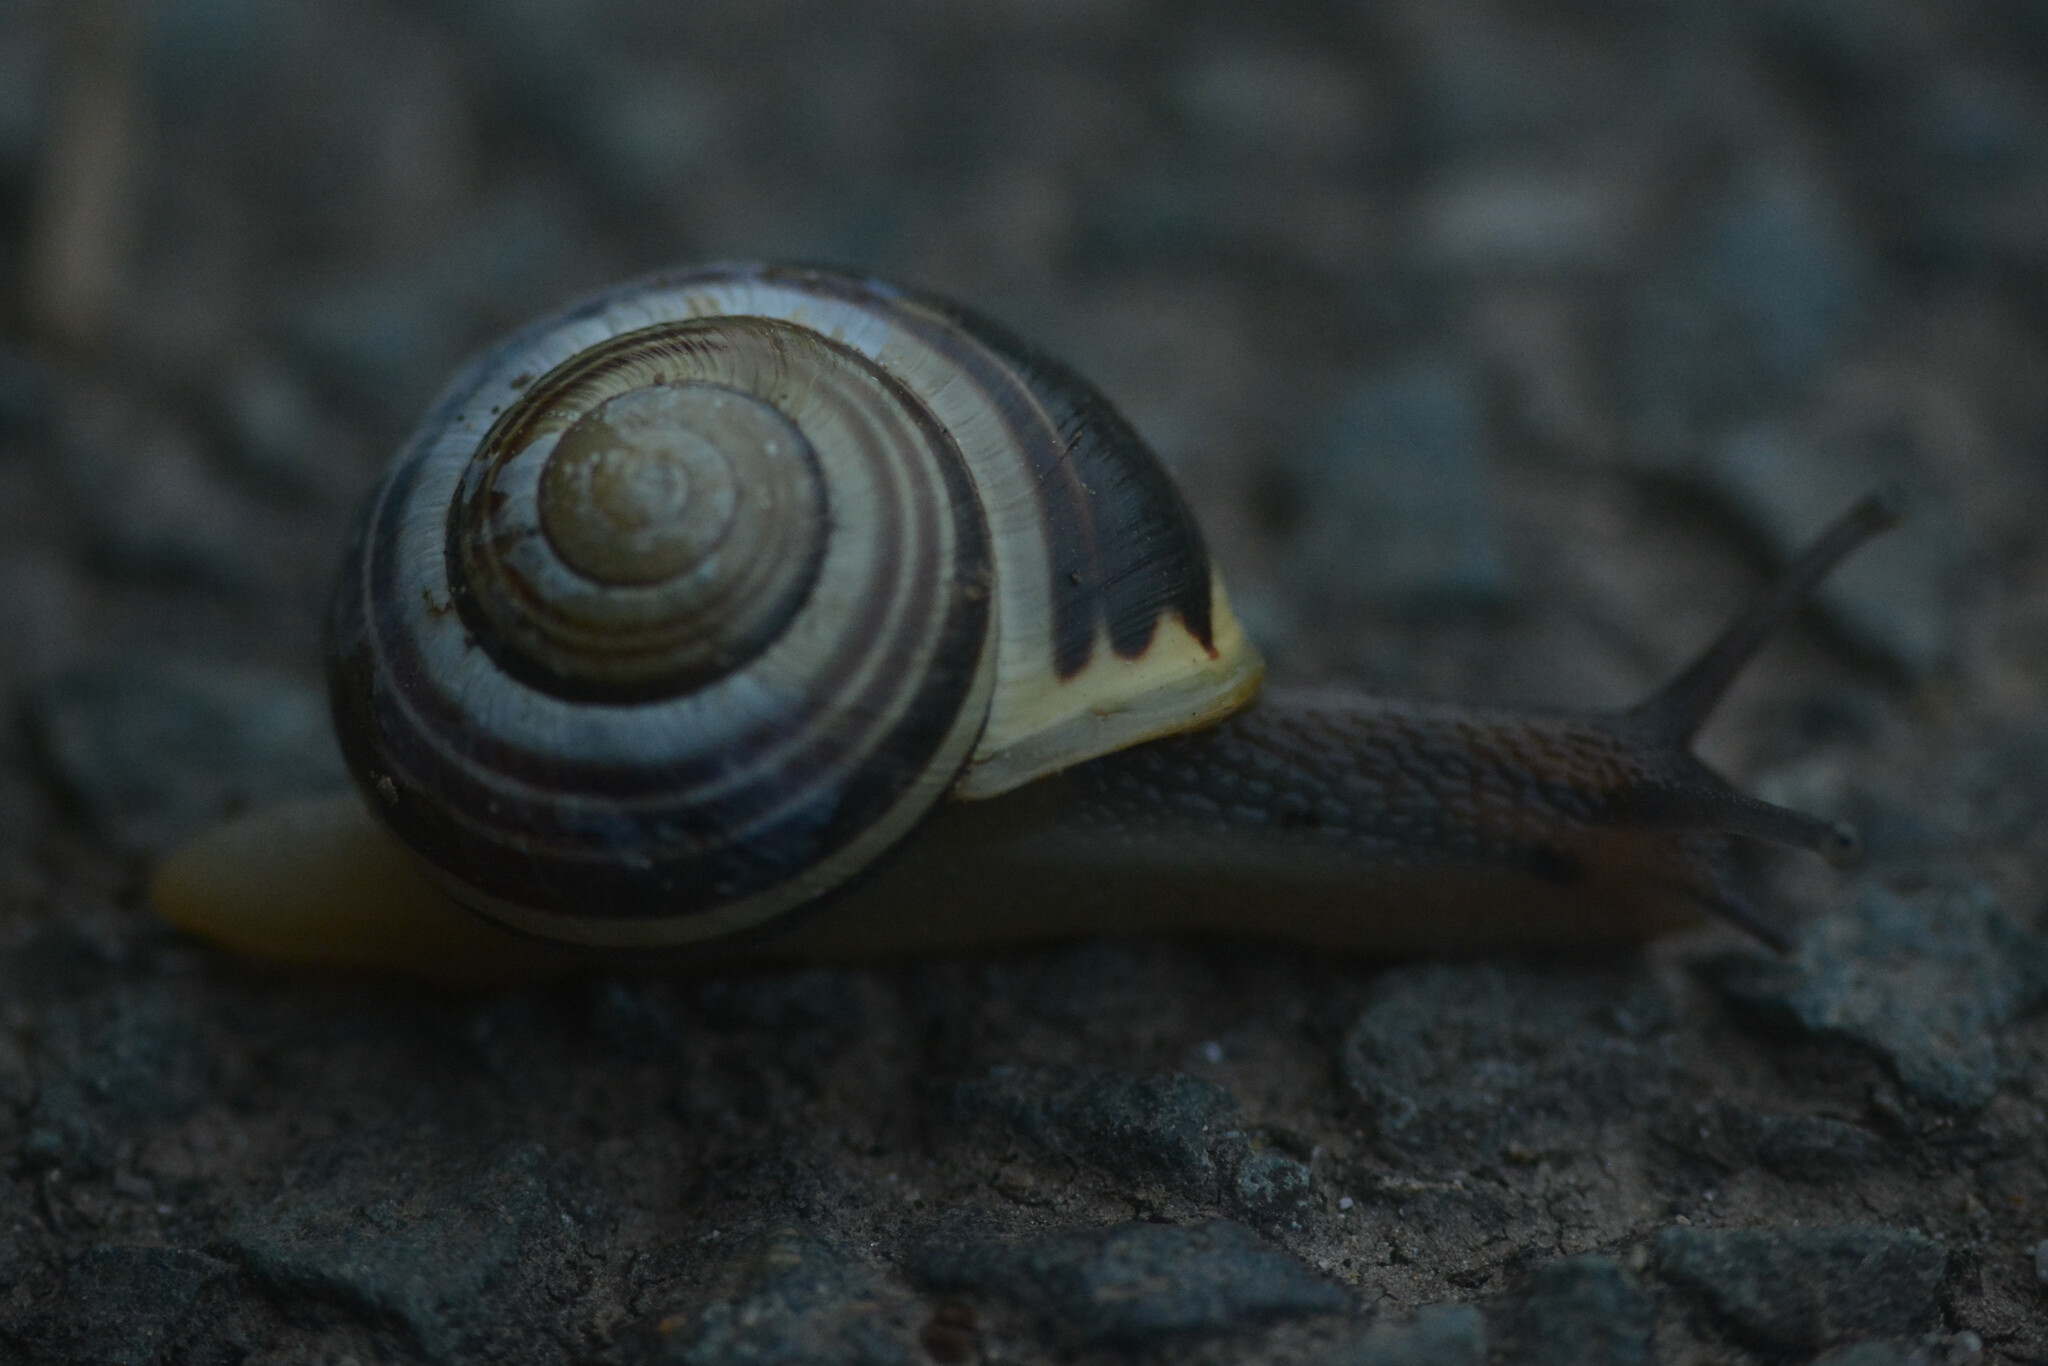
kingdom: Animalia
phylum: Mollusca
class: Gastropoda
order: Stylommatophora
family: Helicidae
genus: Cepaea
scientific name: Cepaea hortensis
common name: White-lip gardensnail
